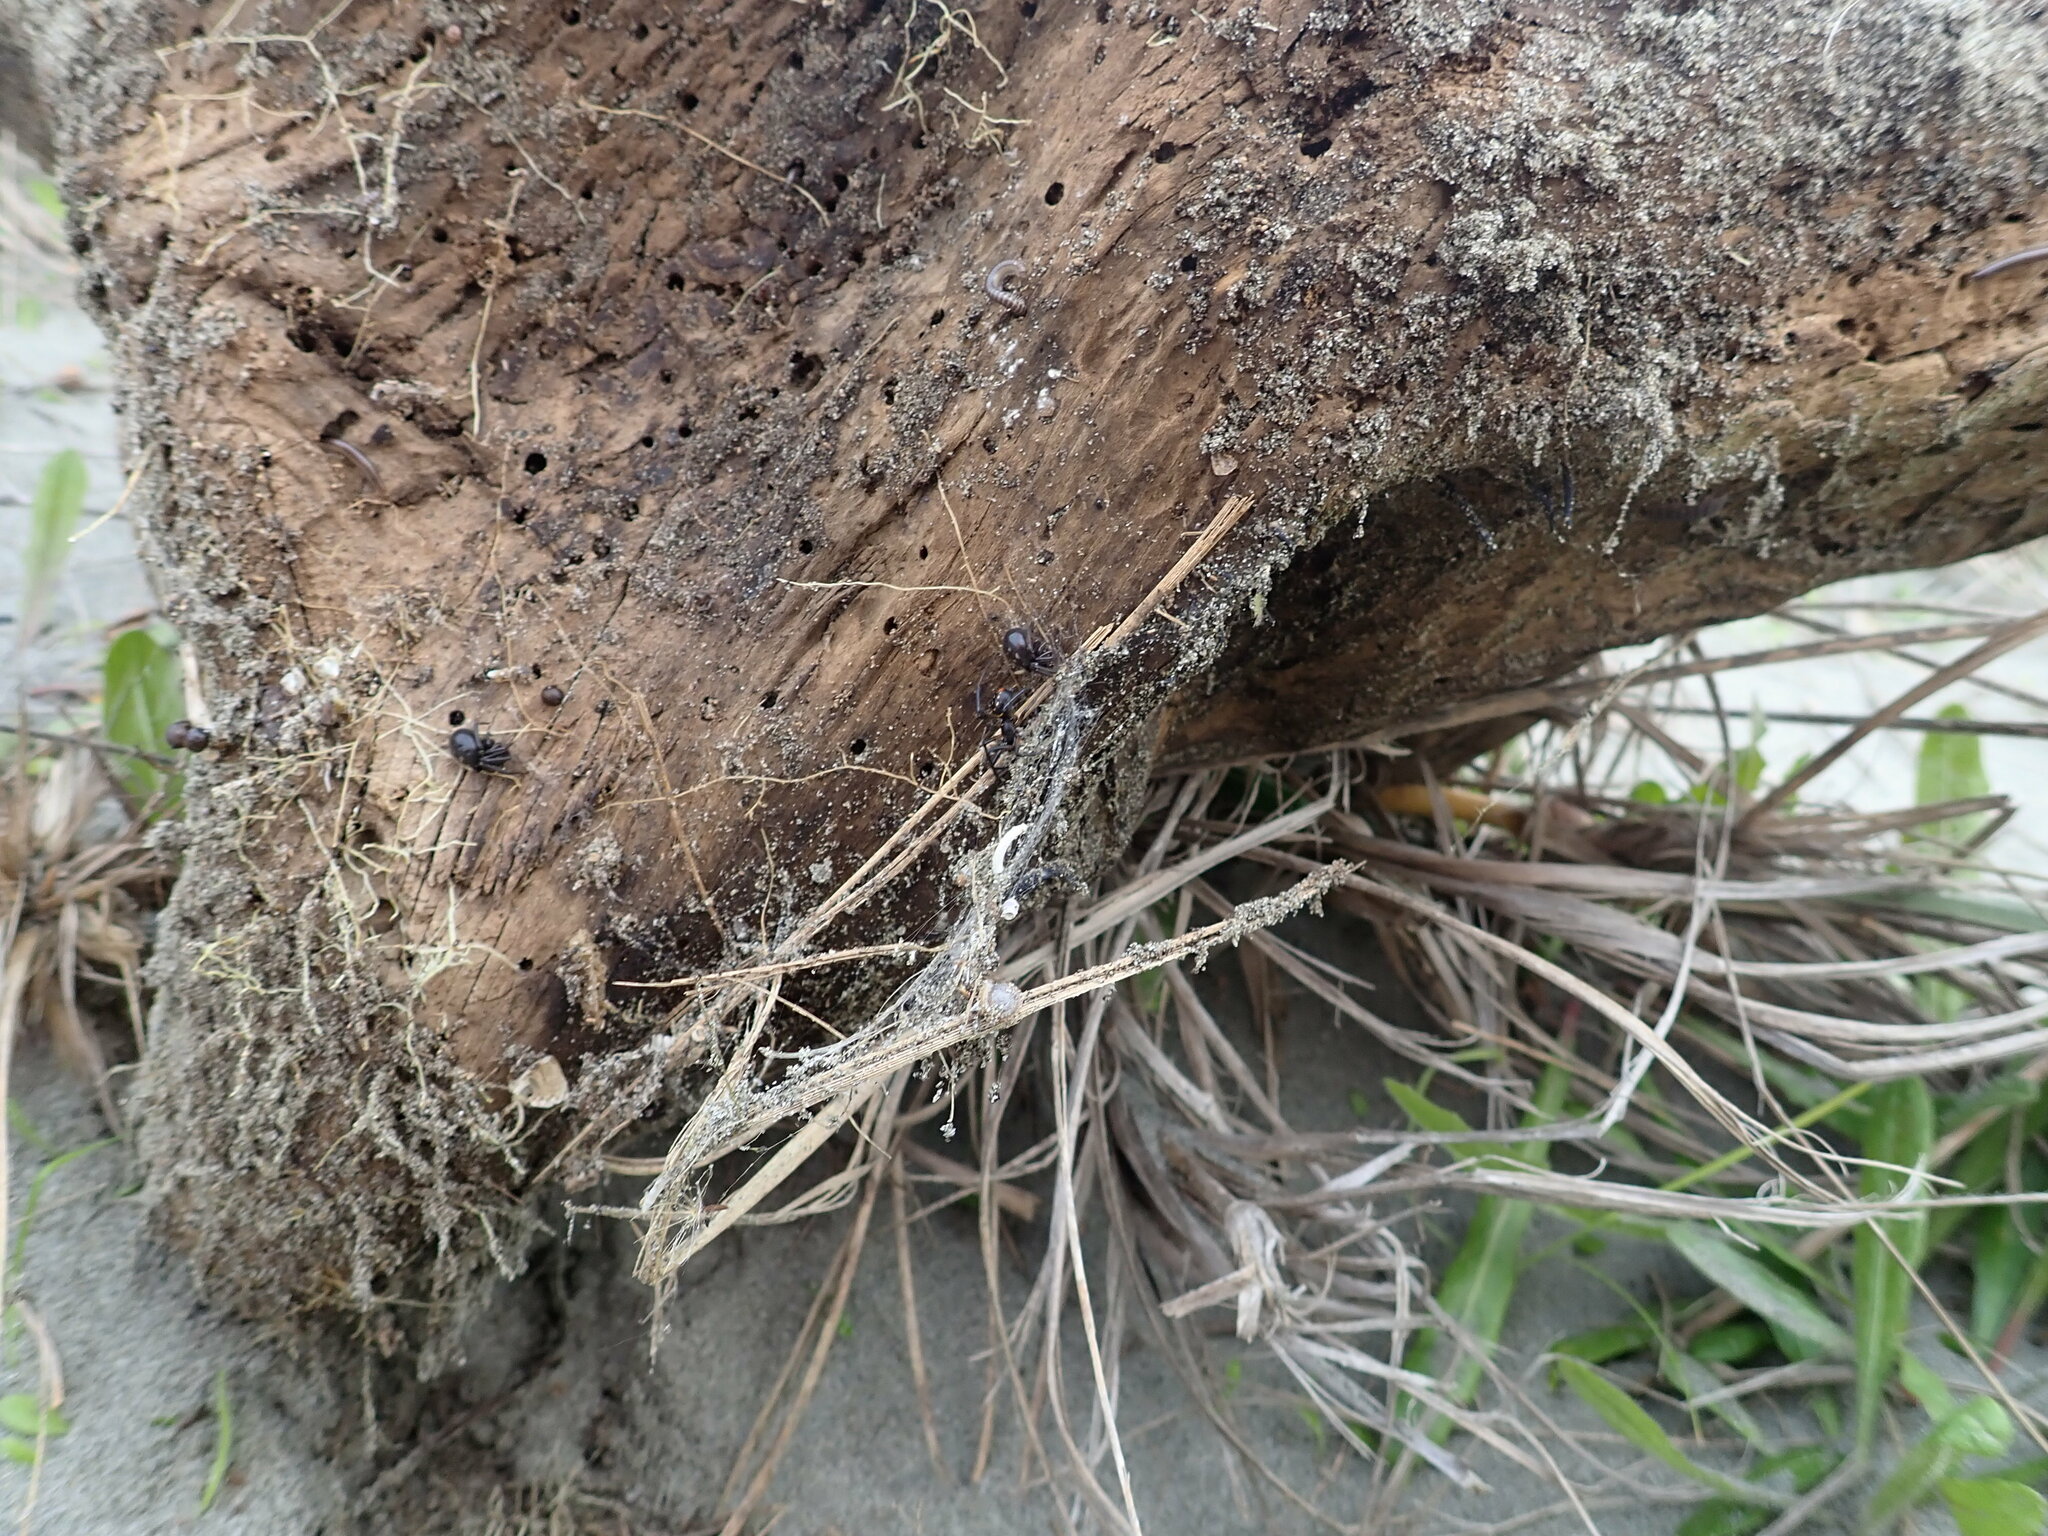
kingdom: Animalia
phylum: Arthropoda
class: Arachnida
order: Araneae
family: Theridiidae
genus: Steatoda
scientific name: Steatoda capensis
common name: Cobweb weaver
